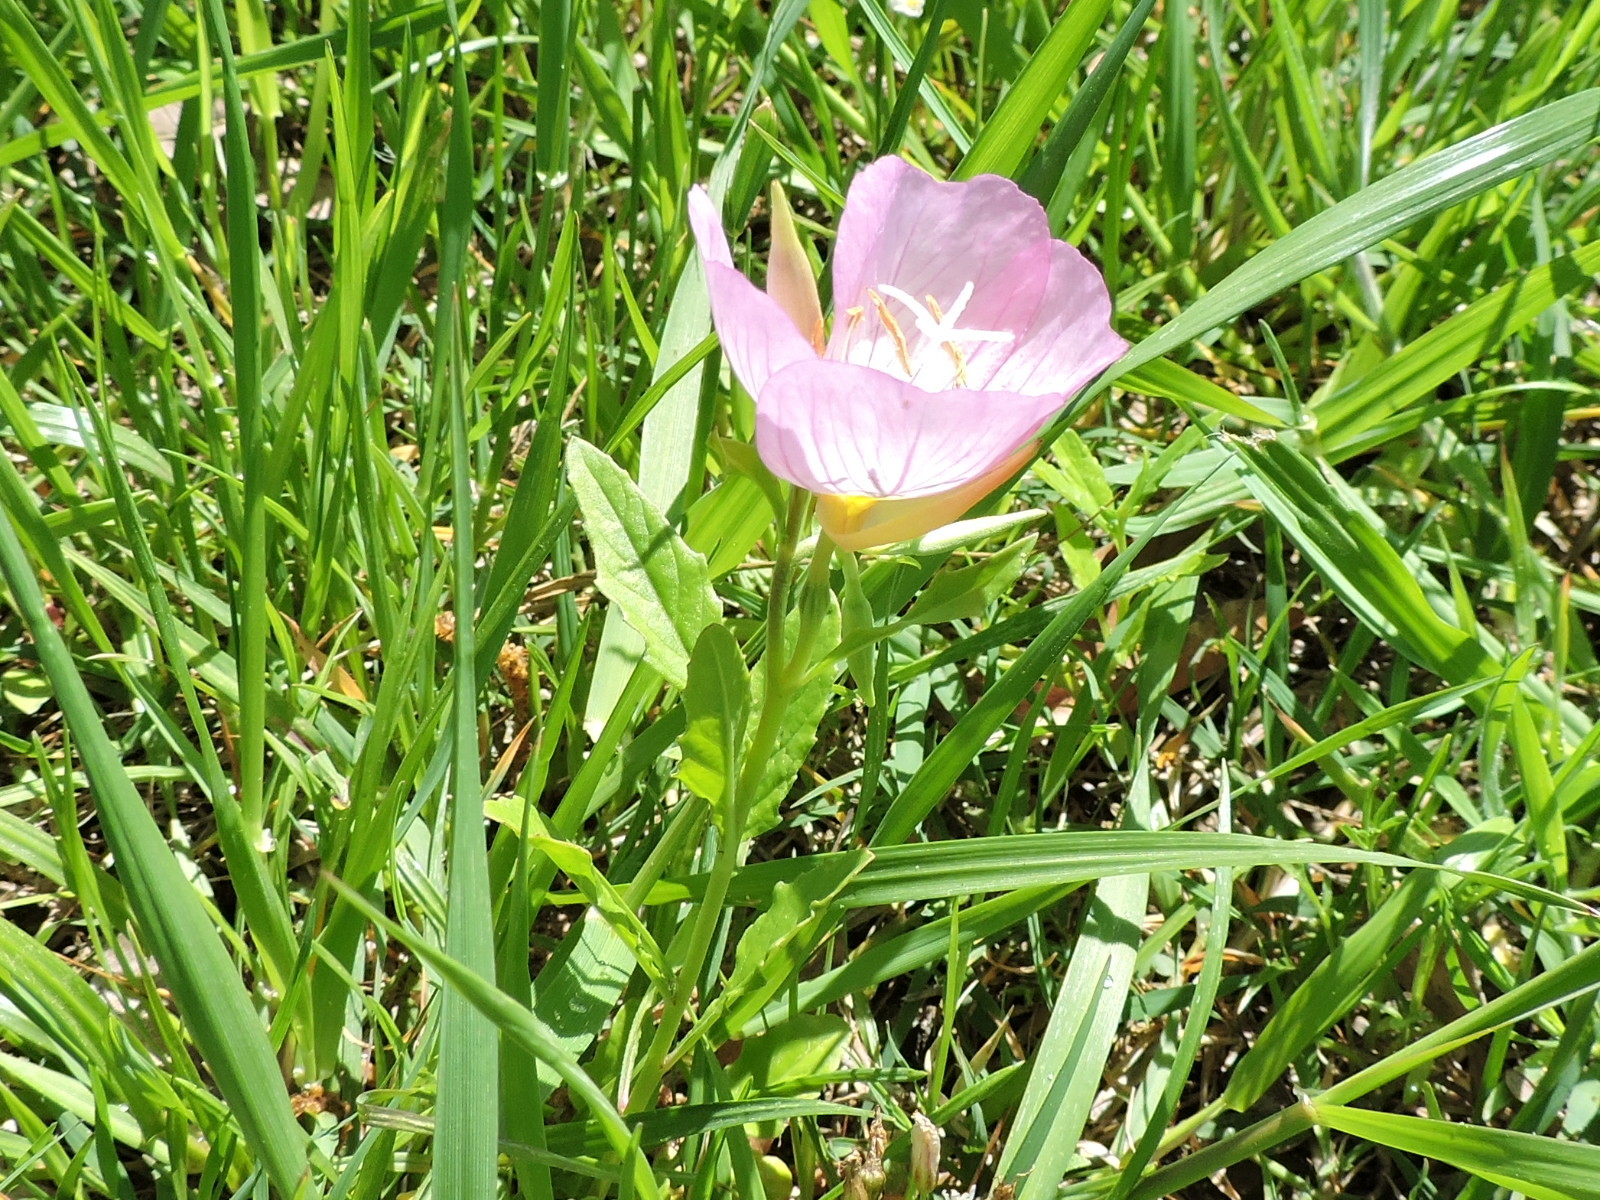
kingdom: Plantae
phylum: Tracheophyta
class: Magnoliopsida
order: Myrtales
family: Onagraceae
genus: Oenothera
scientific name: Oenothera speciosa
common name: White evening-primrose
